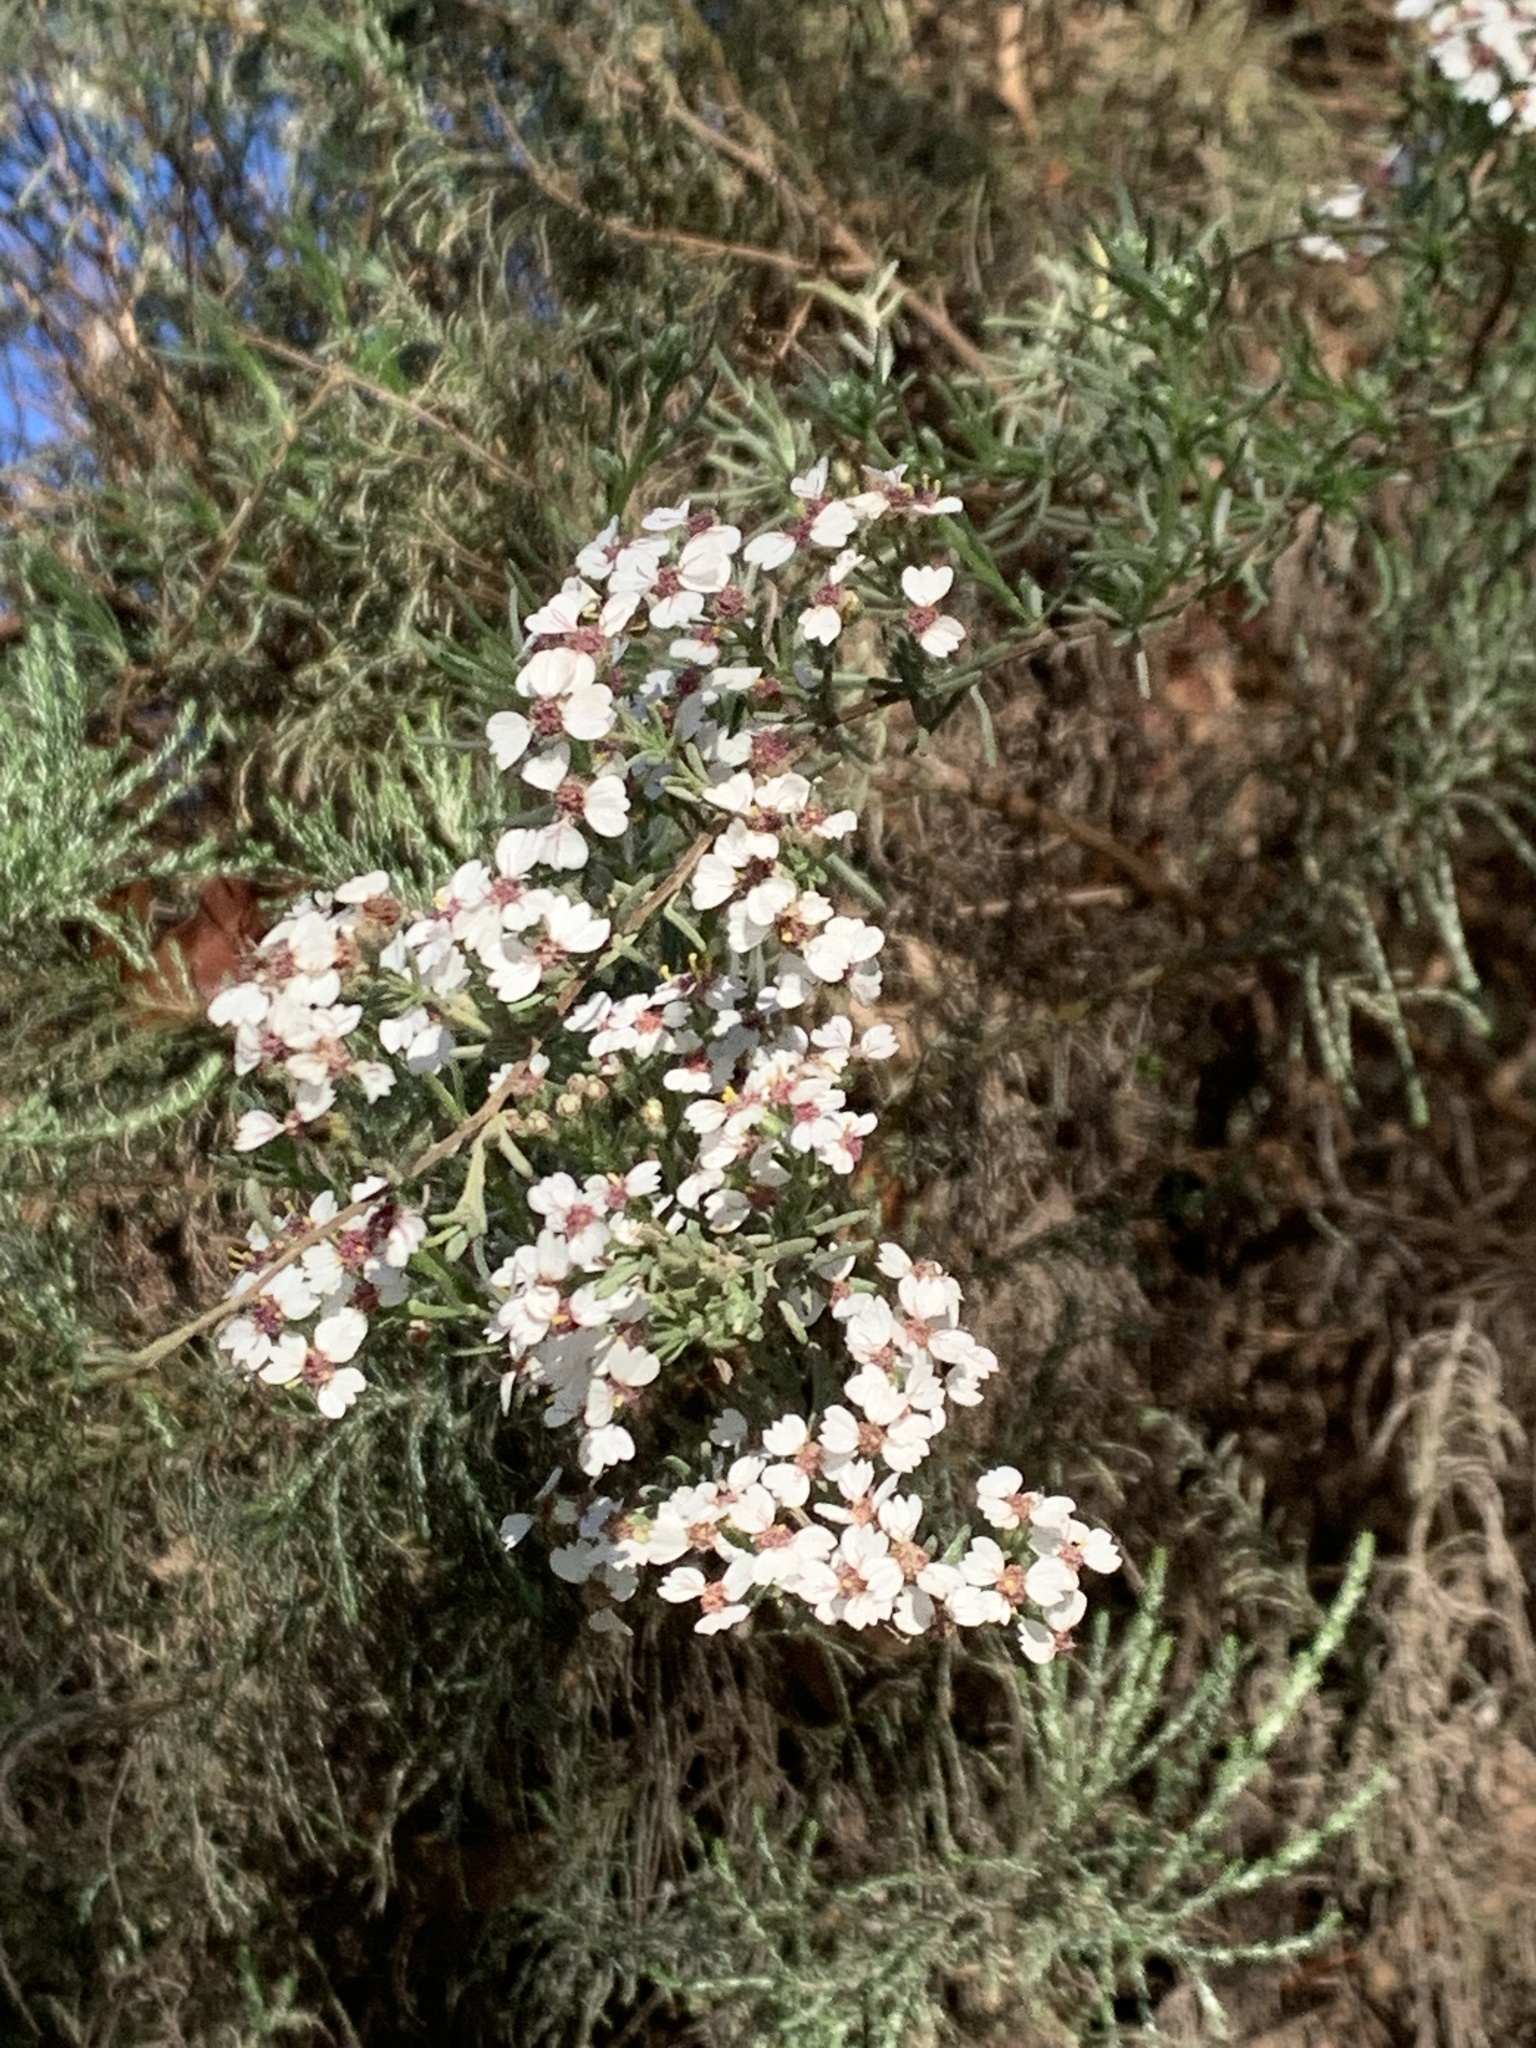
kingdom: Plantae
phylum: Tracheophyta
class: Magnoliopsida
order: Asterales
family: Asteraceae
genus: Eriocephalus
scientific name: Eriocephalus africanus
